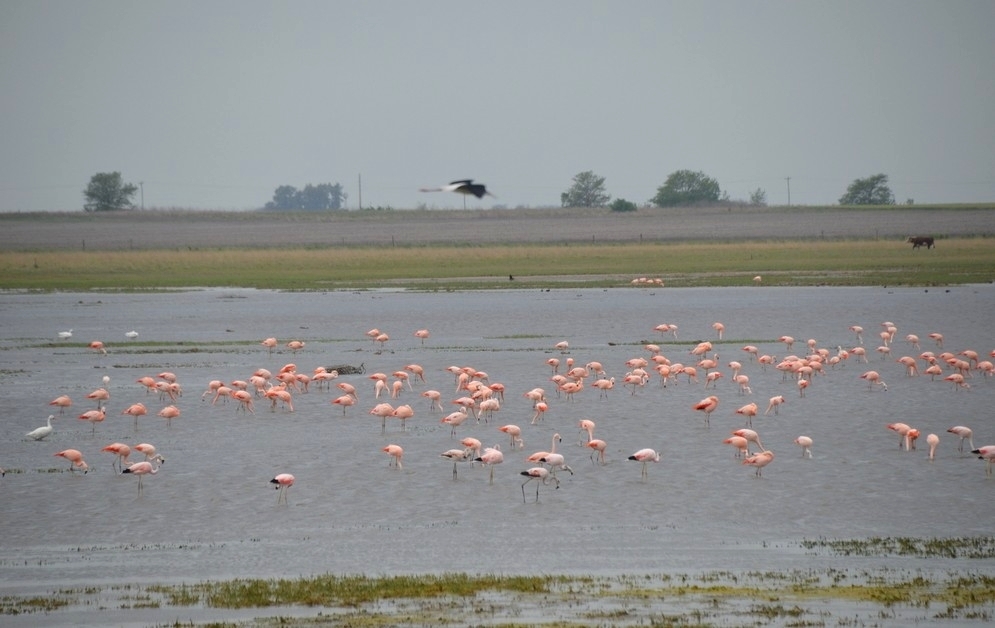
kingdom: Animalia
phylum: Chordata
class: Aves
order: Phoenicopteriformes
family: Phoenicopteridae
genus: Phoenicopterus
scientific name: Phoenicopterus chilensis
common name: Chilean flamingo
